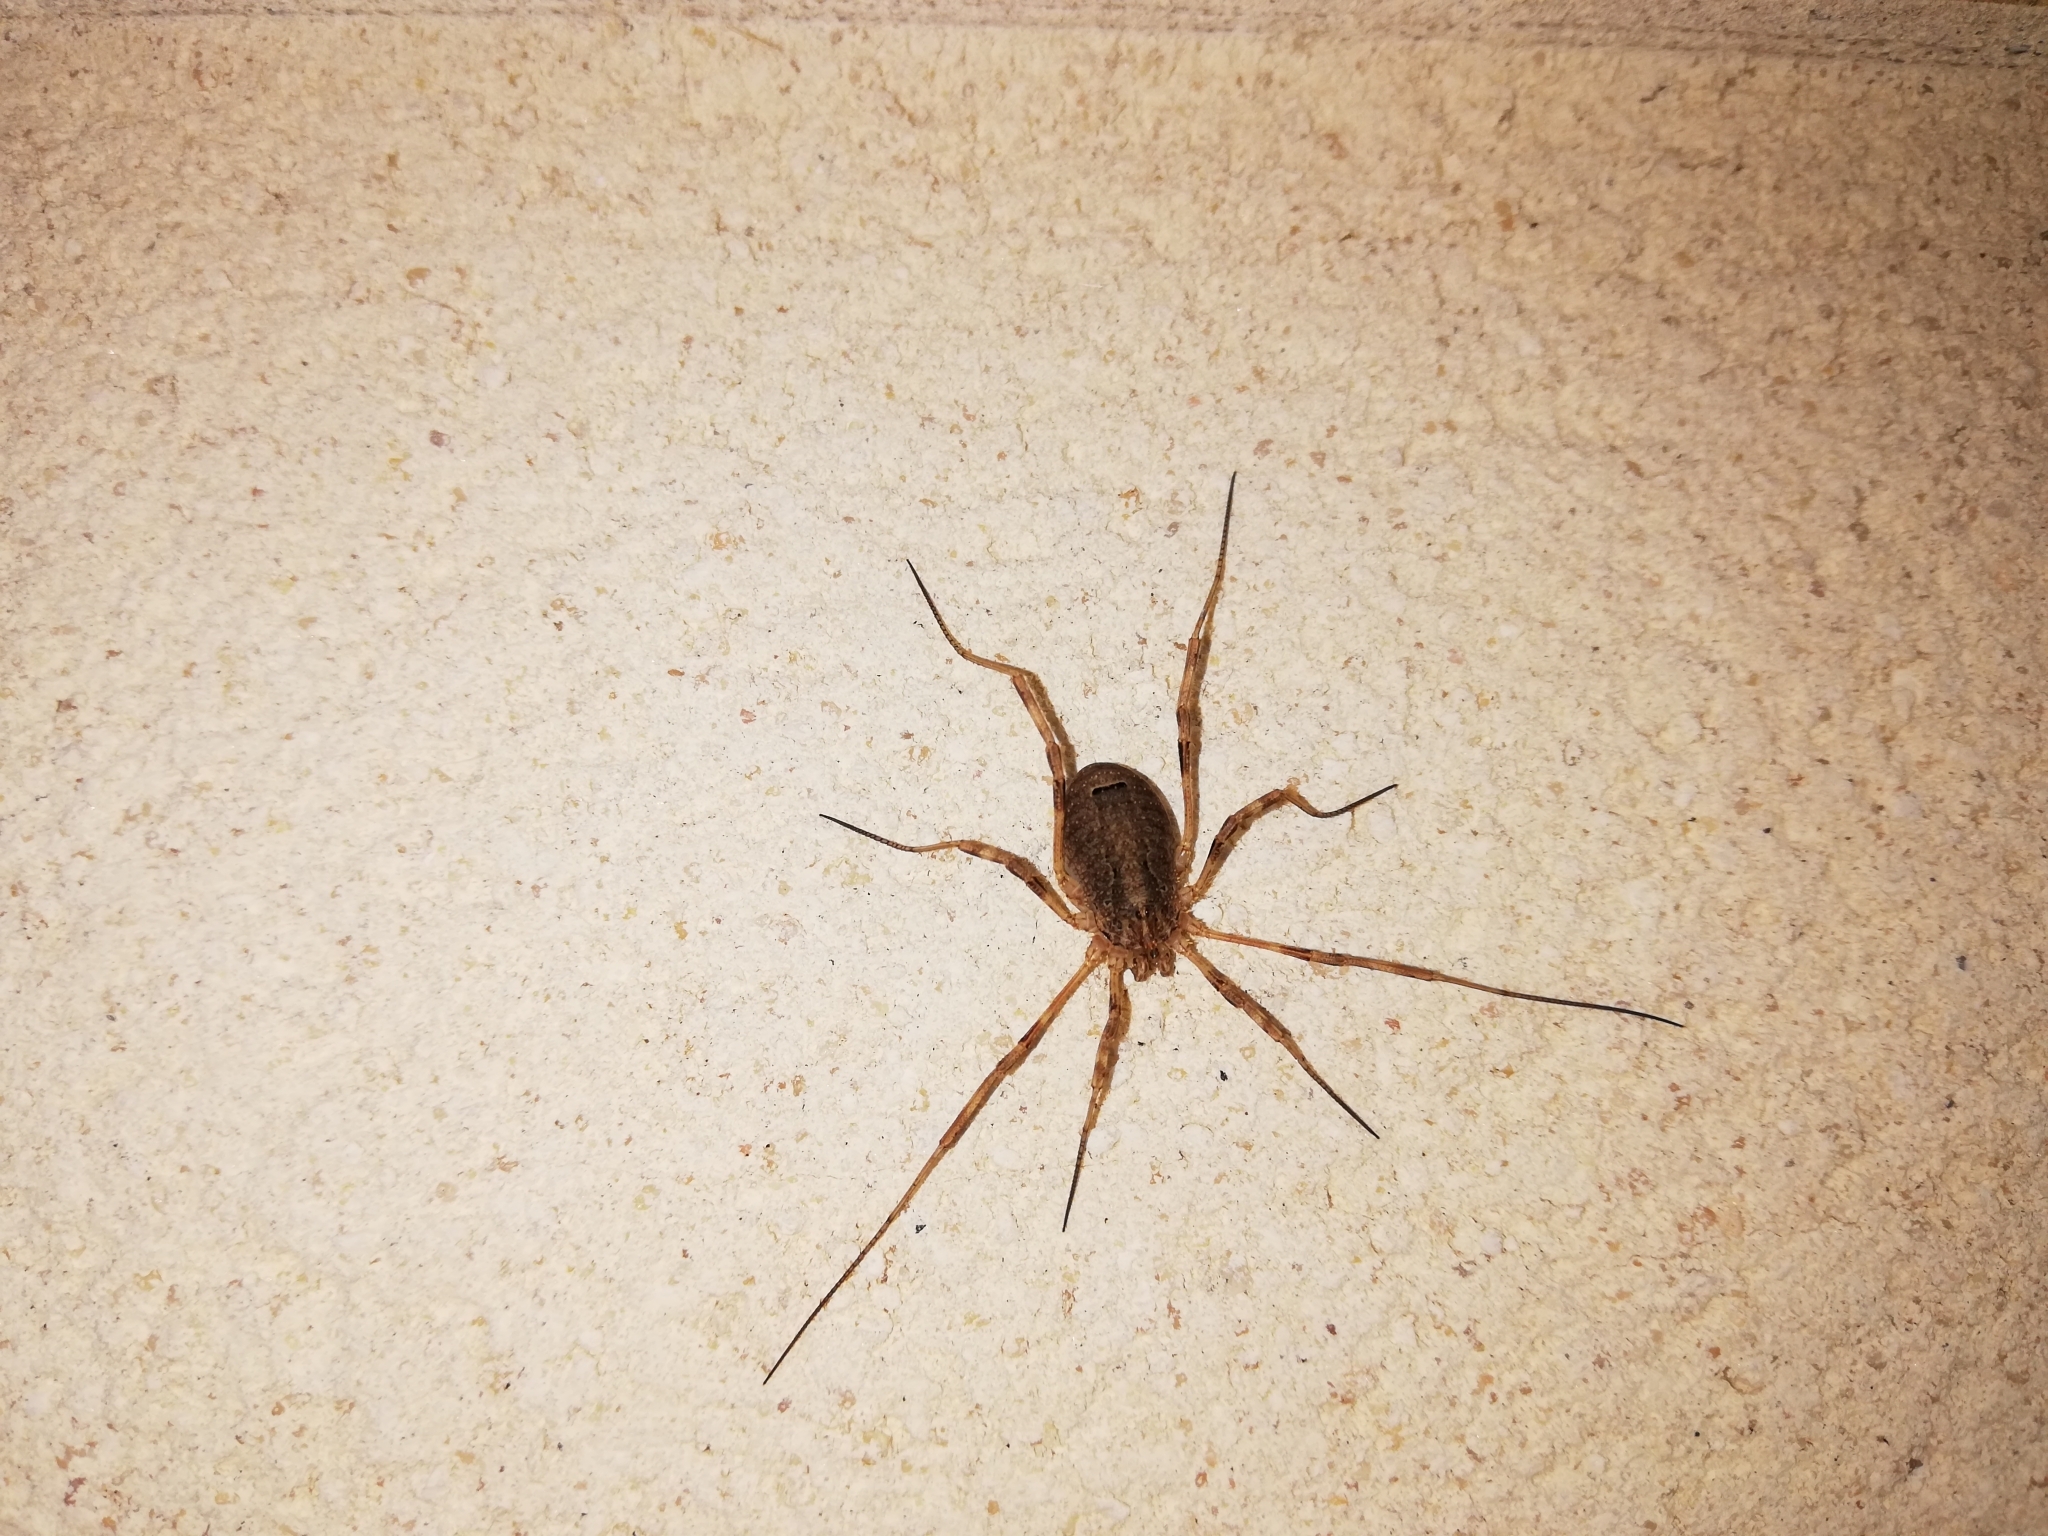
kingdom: Animalia
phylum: Arthropoda
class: Arachnida
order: Opiliones
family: Phalangiidae
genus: Odiellus
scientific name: Odiellus spinosus
